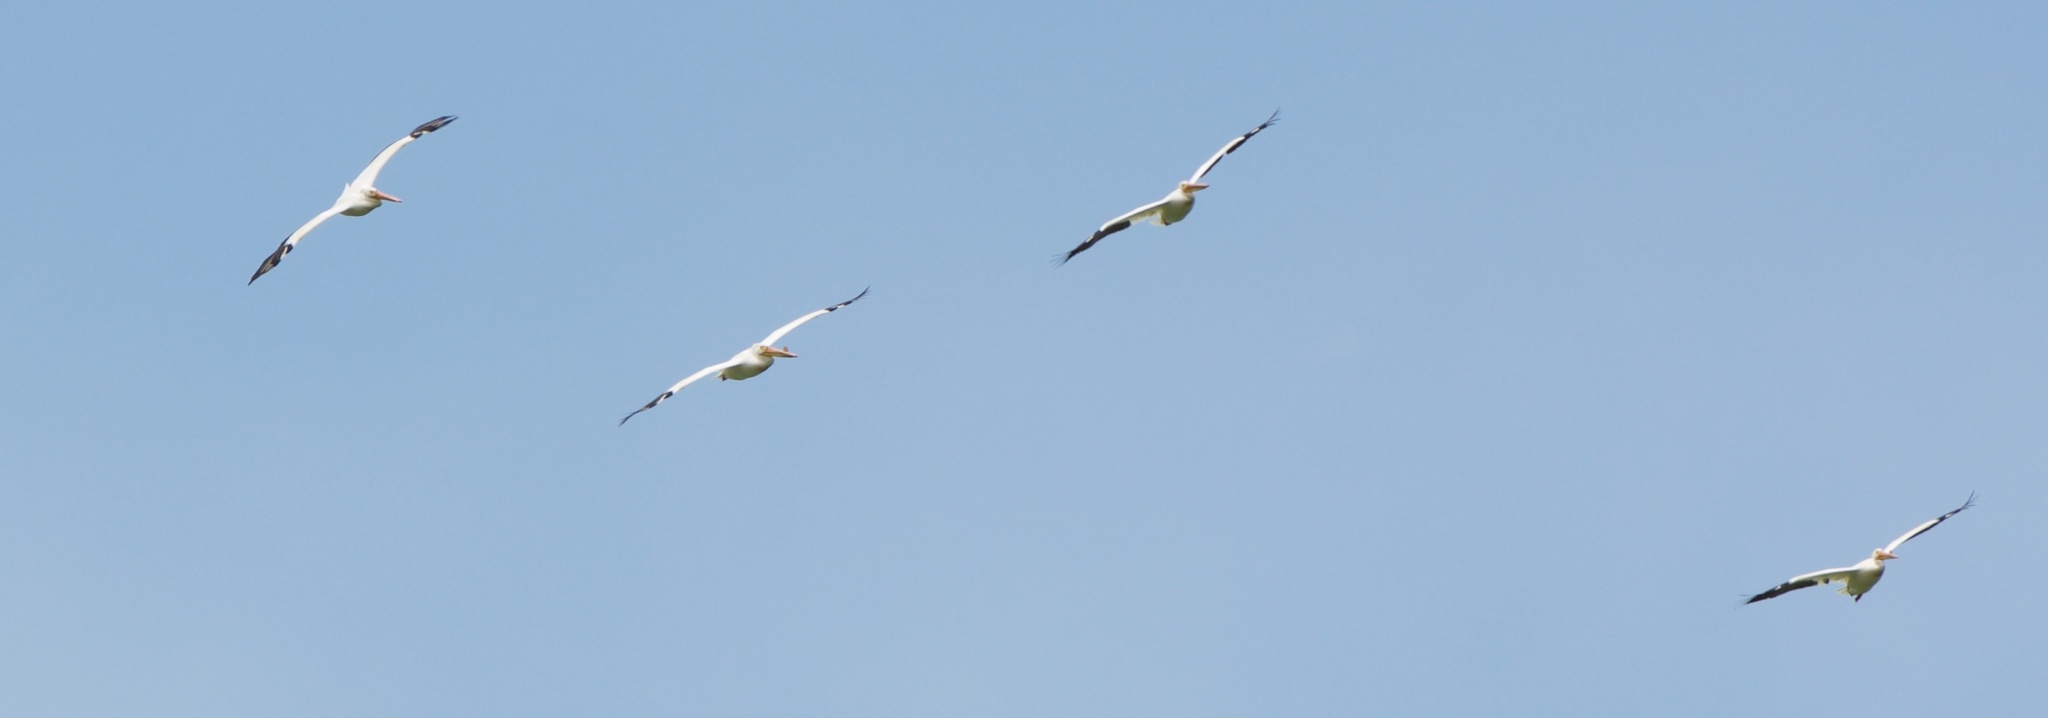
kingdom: Animalia
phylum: Chordata
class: Aves
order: Pelecaniformes
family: Pelecanidae
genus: Pelecanus
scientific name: Pelecanus erythrorhynchos
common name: American white pelican
